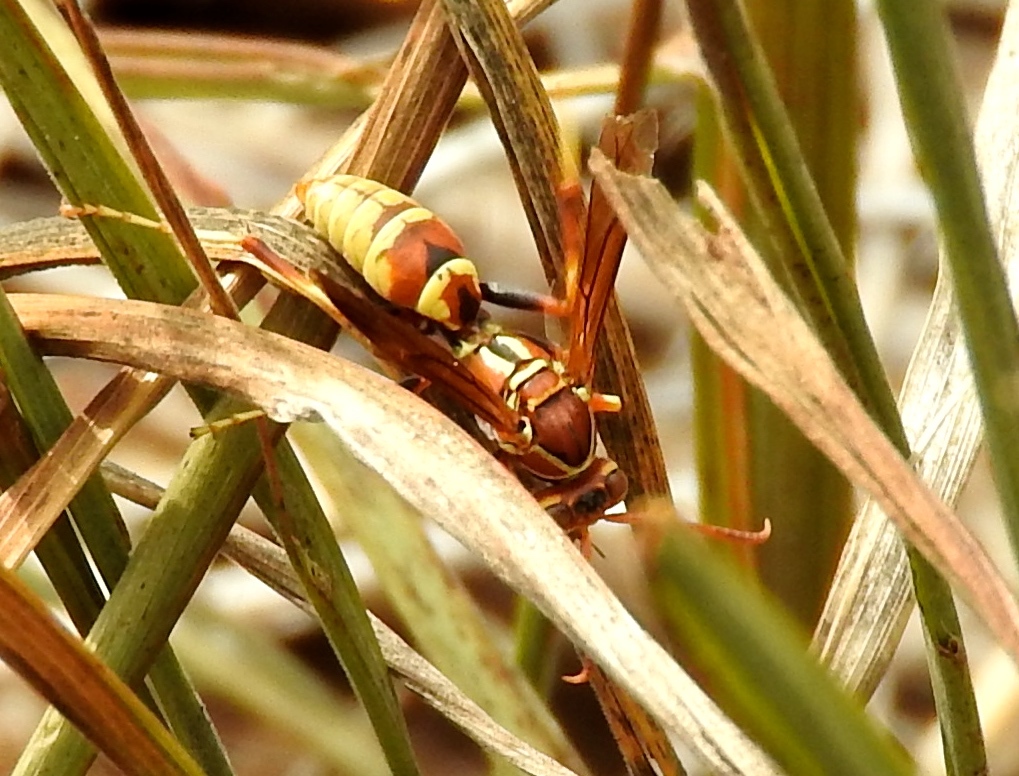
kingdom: Animalia
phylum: Arthropoda
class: Insecta
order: Hymenoptera
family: Eumenidae
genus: Polistes
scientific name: Polistes dorsalis
